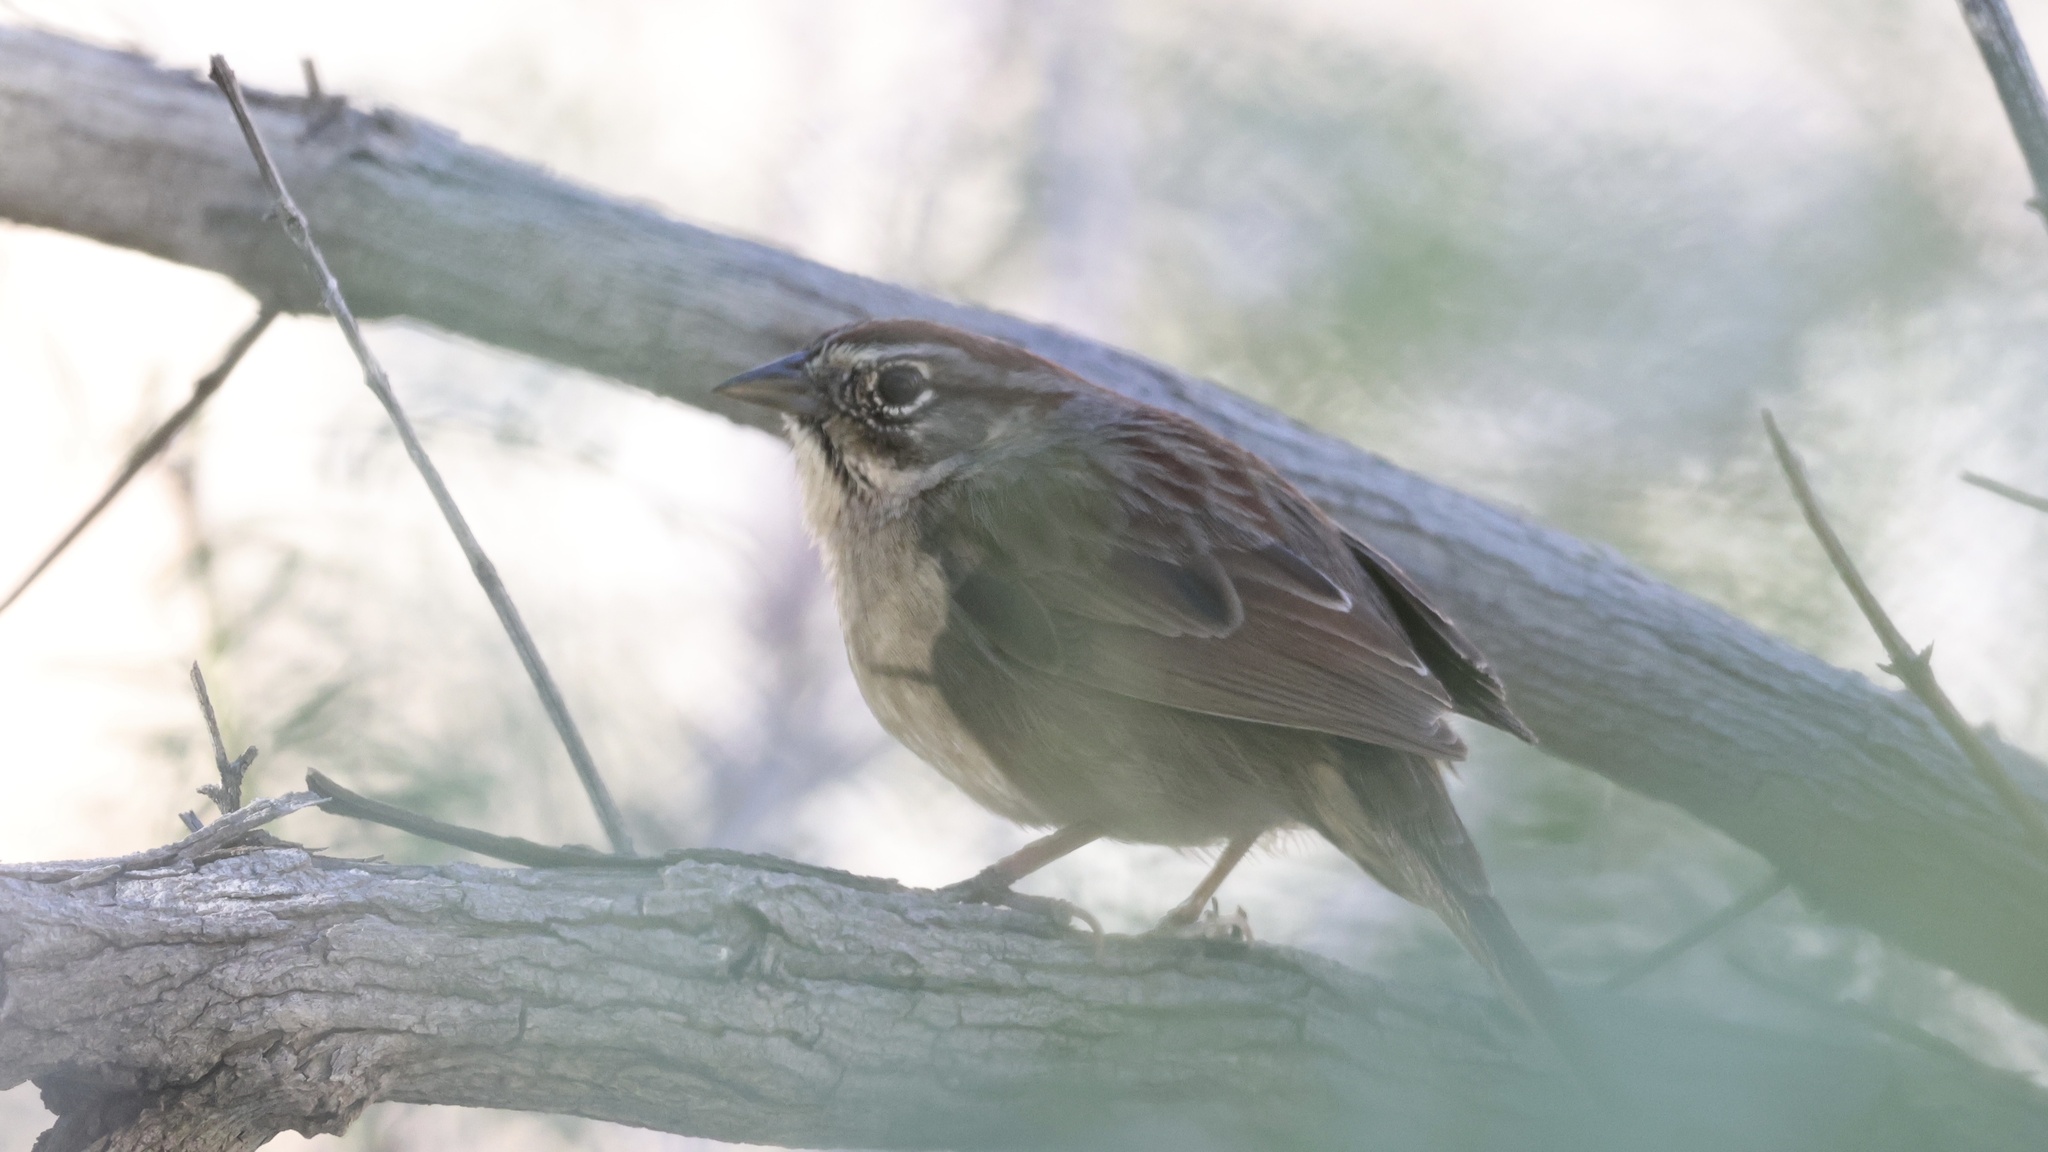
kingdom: Animalia
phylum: Chordata
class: Aves
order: Passeriformes
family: Passerellidae
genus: Aimophila
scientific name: Aimophila ruficeps
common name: Rufous-crowned sparrow
